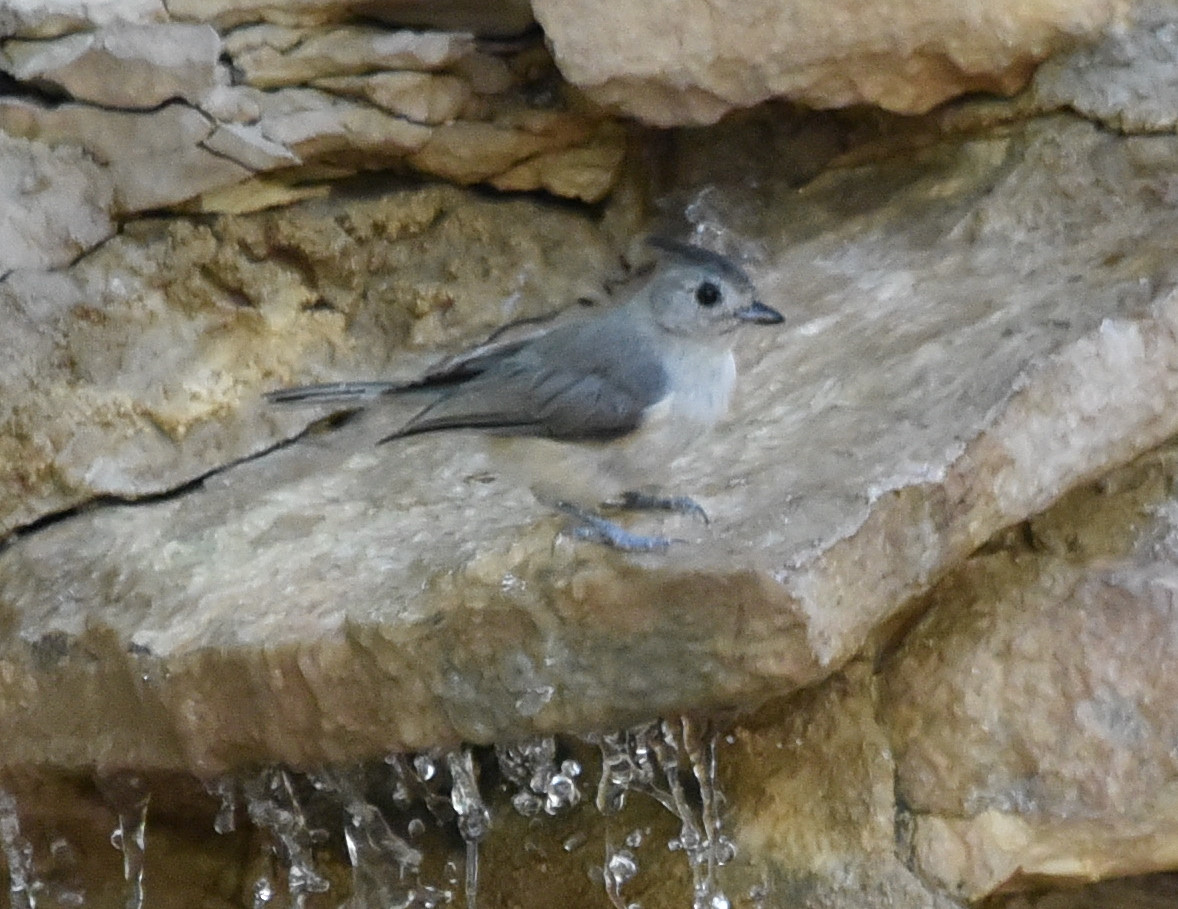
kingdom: Animalia
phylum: Chordata
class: Aves
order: Passeriformes
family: Paridae
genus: Baeolophus
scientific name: Baeolophus atricristatus
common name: Black-crested titmouse
